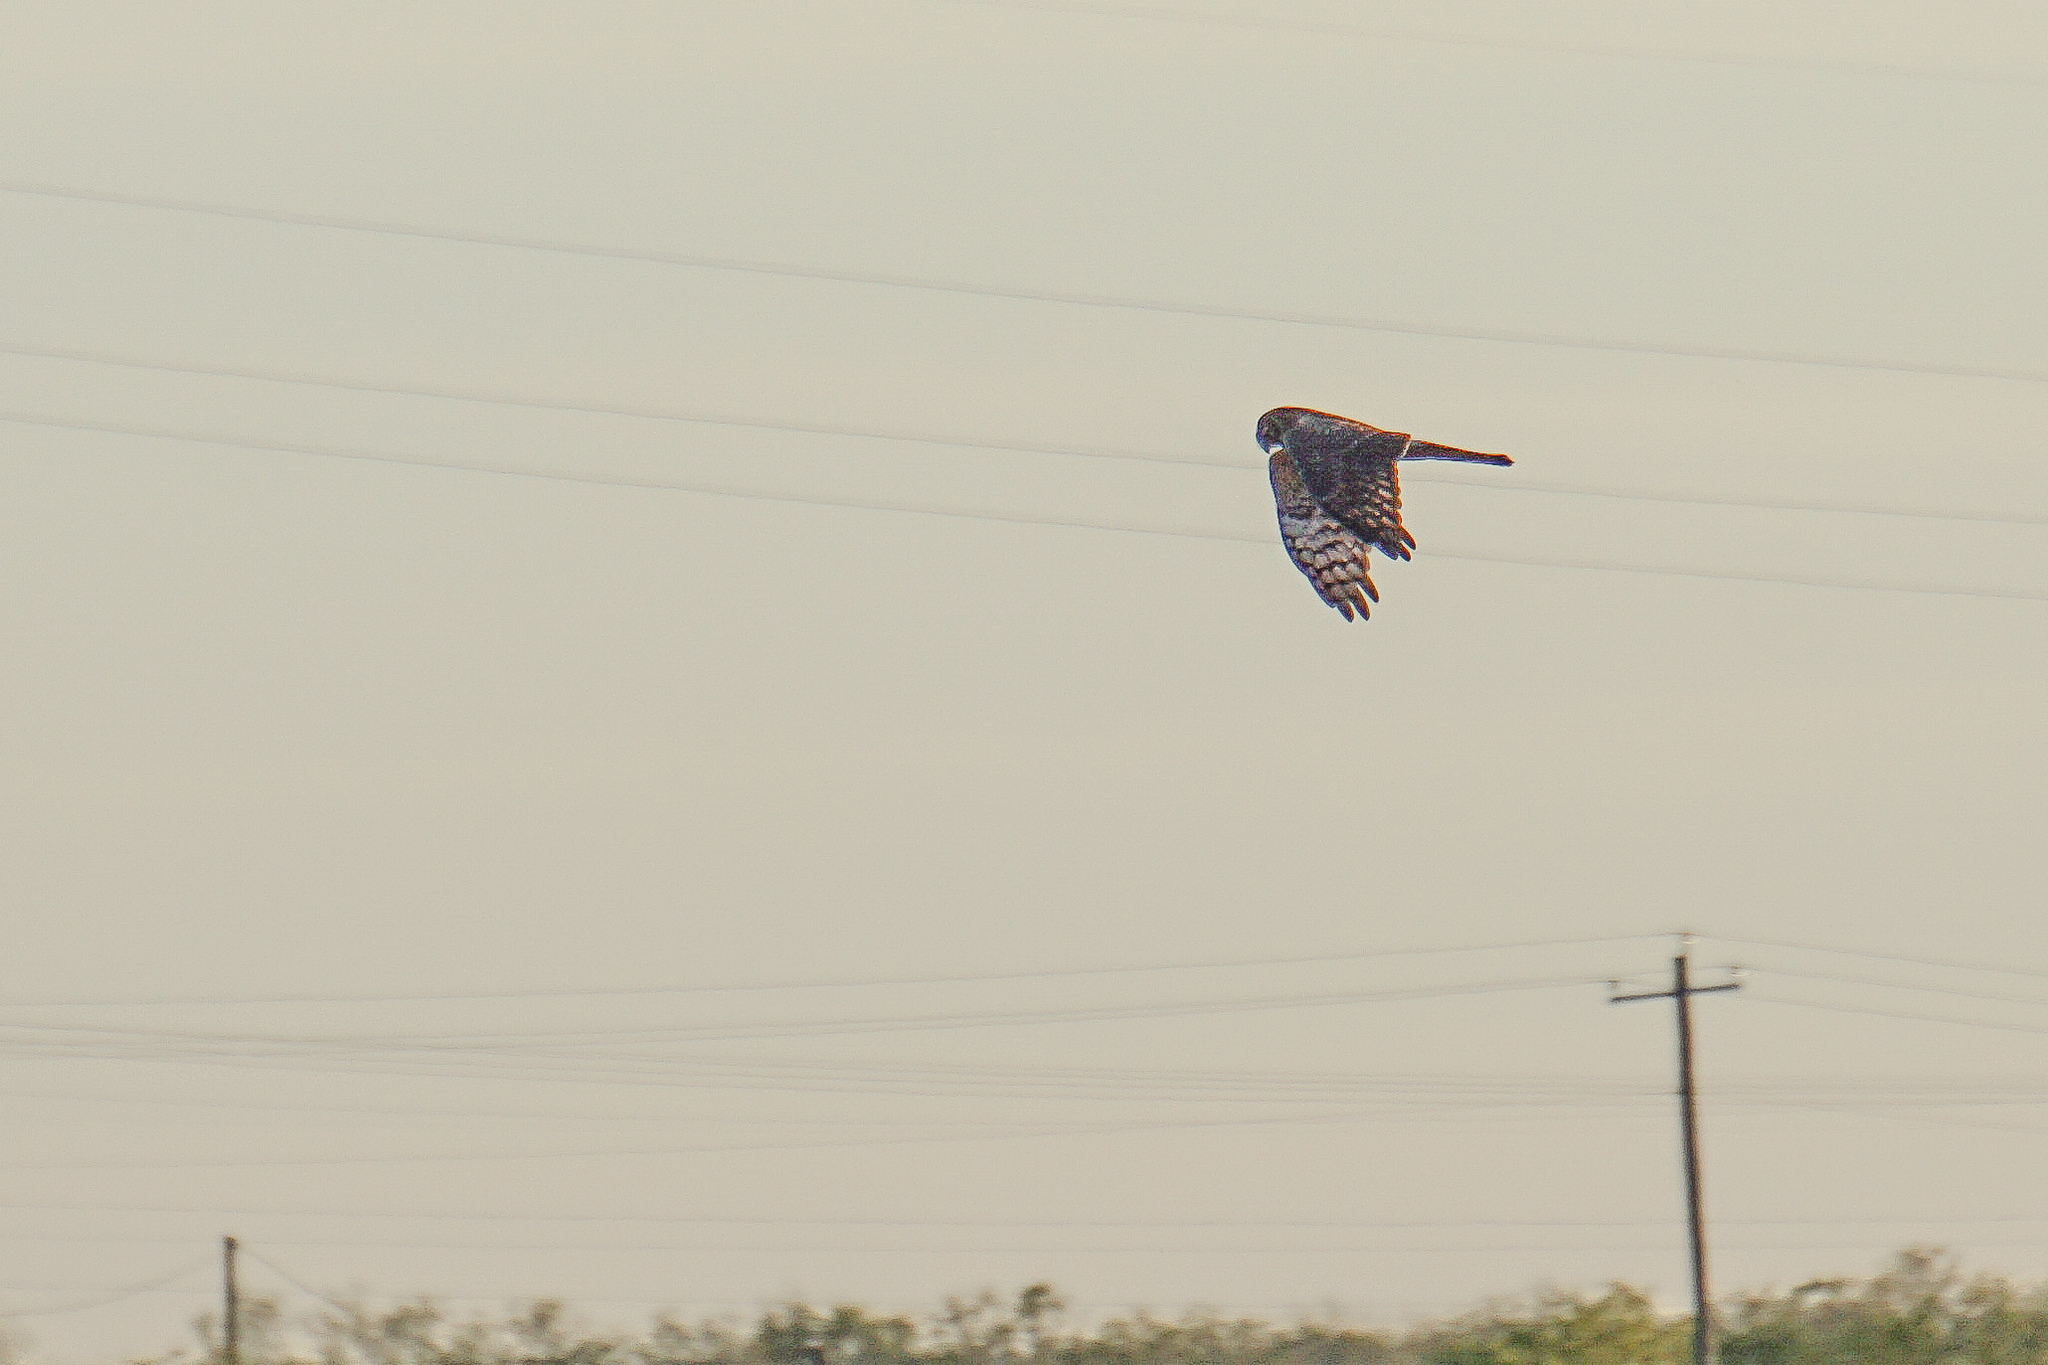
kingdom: Animalia
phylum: Chordata
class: Aves
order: Accipitriformes
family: Accipitridae
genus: Circus
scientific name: Circus cyaneus
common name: Hen harrier
